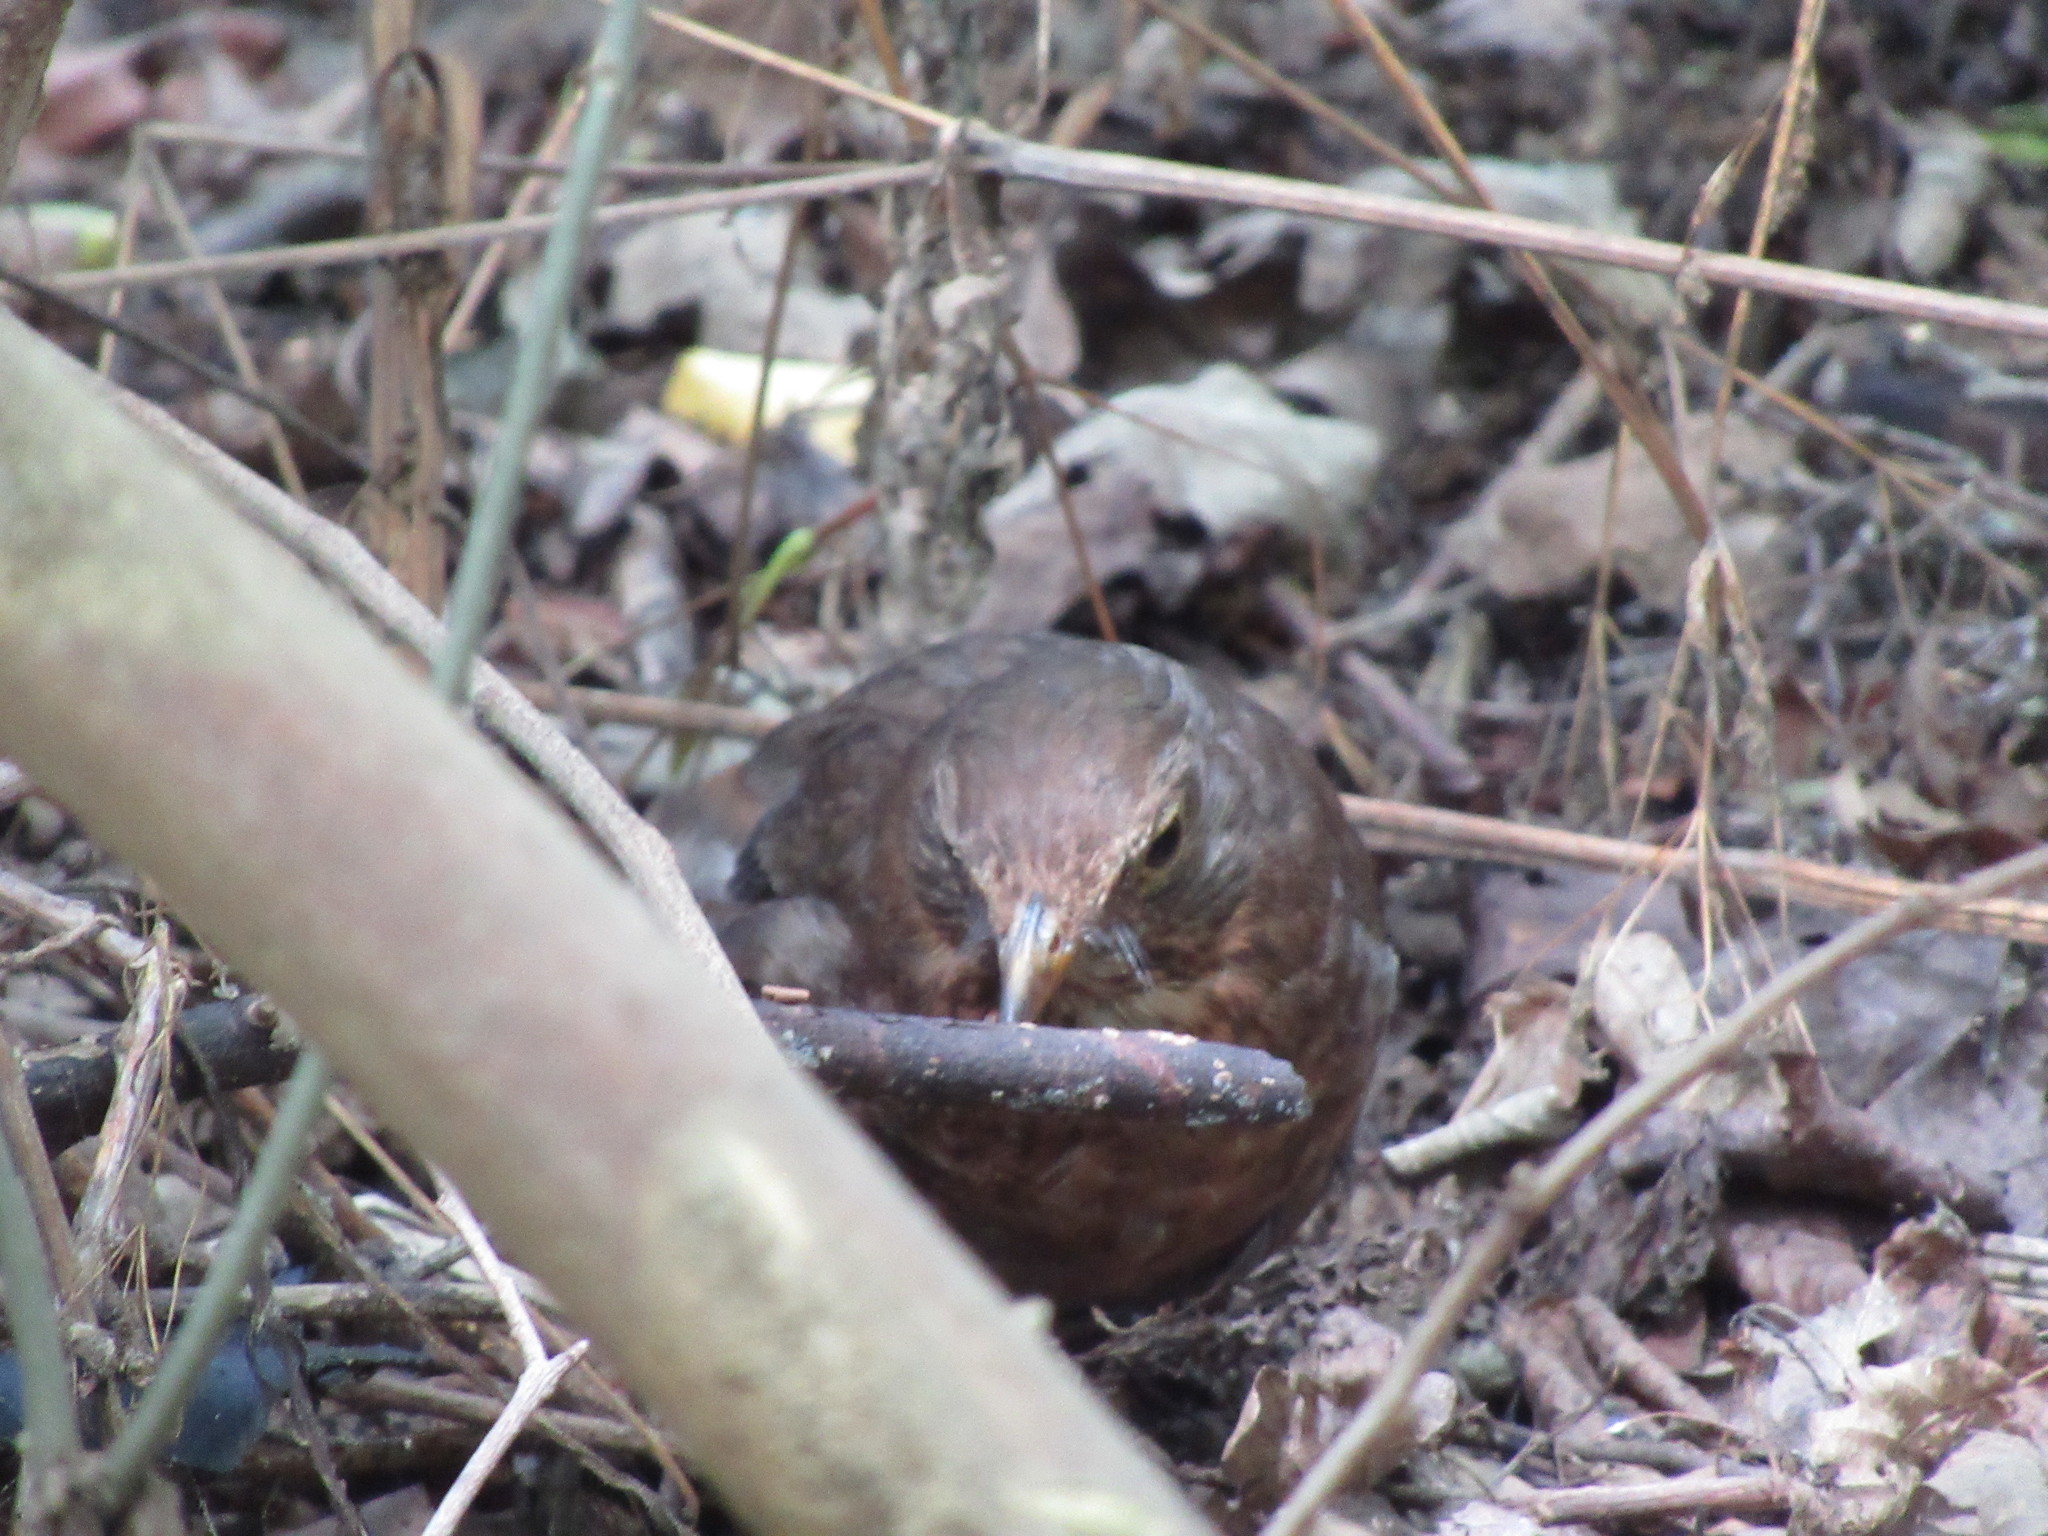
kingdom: Animalia
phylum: Chordata
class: Aves
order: Passeriformes
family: Turdidae
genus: Turdus
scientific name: Turdus merula
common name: Common blackbird
